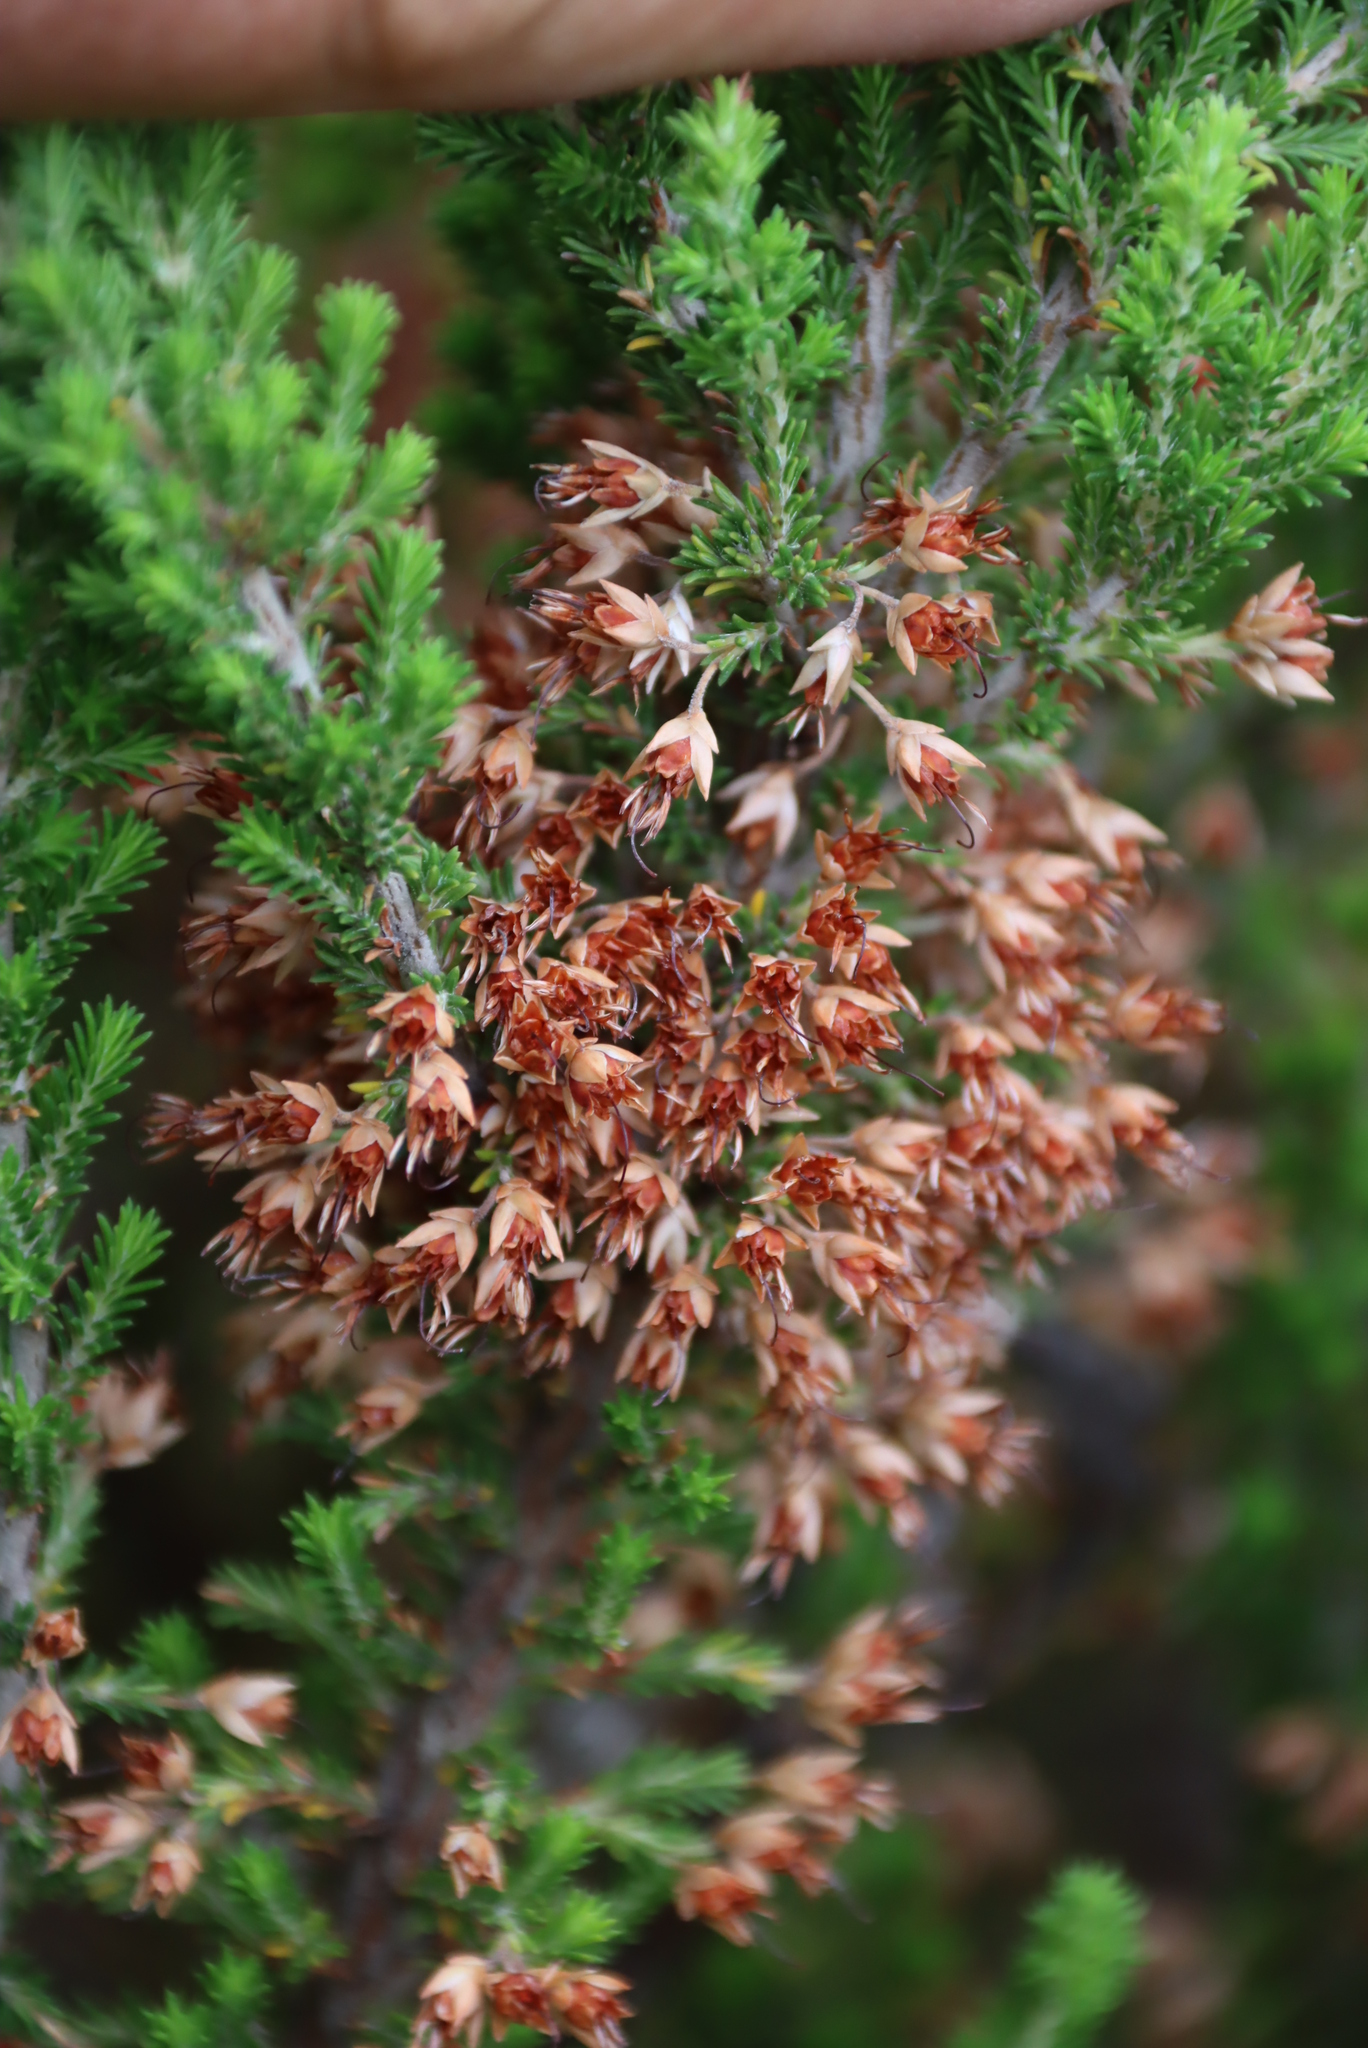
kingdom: Plantae
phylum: Tracheophyta
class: Magnoliopsida
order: Ericales
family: Ericaceae
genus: Erica
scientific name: Erica penicilliformis
